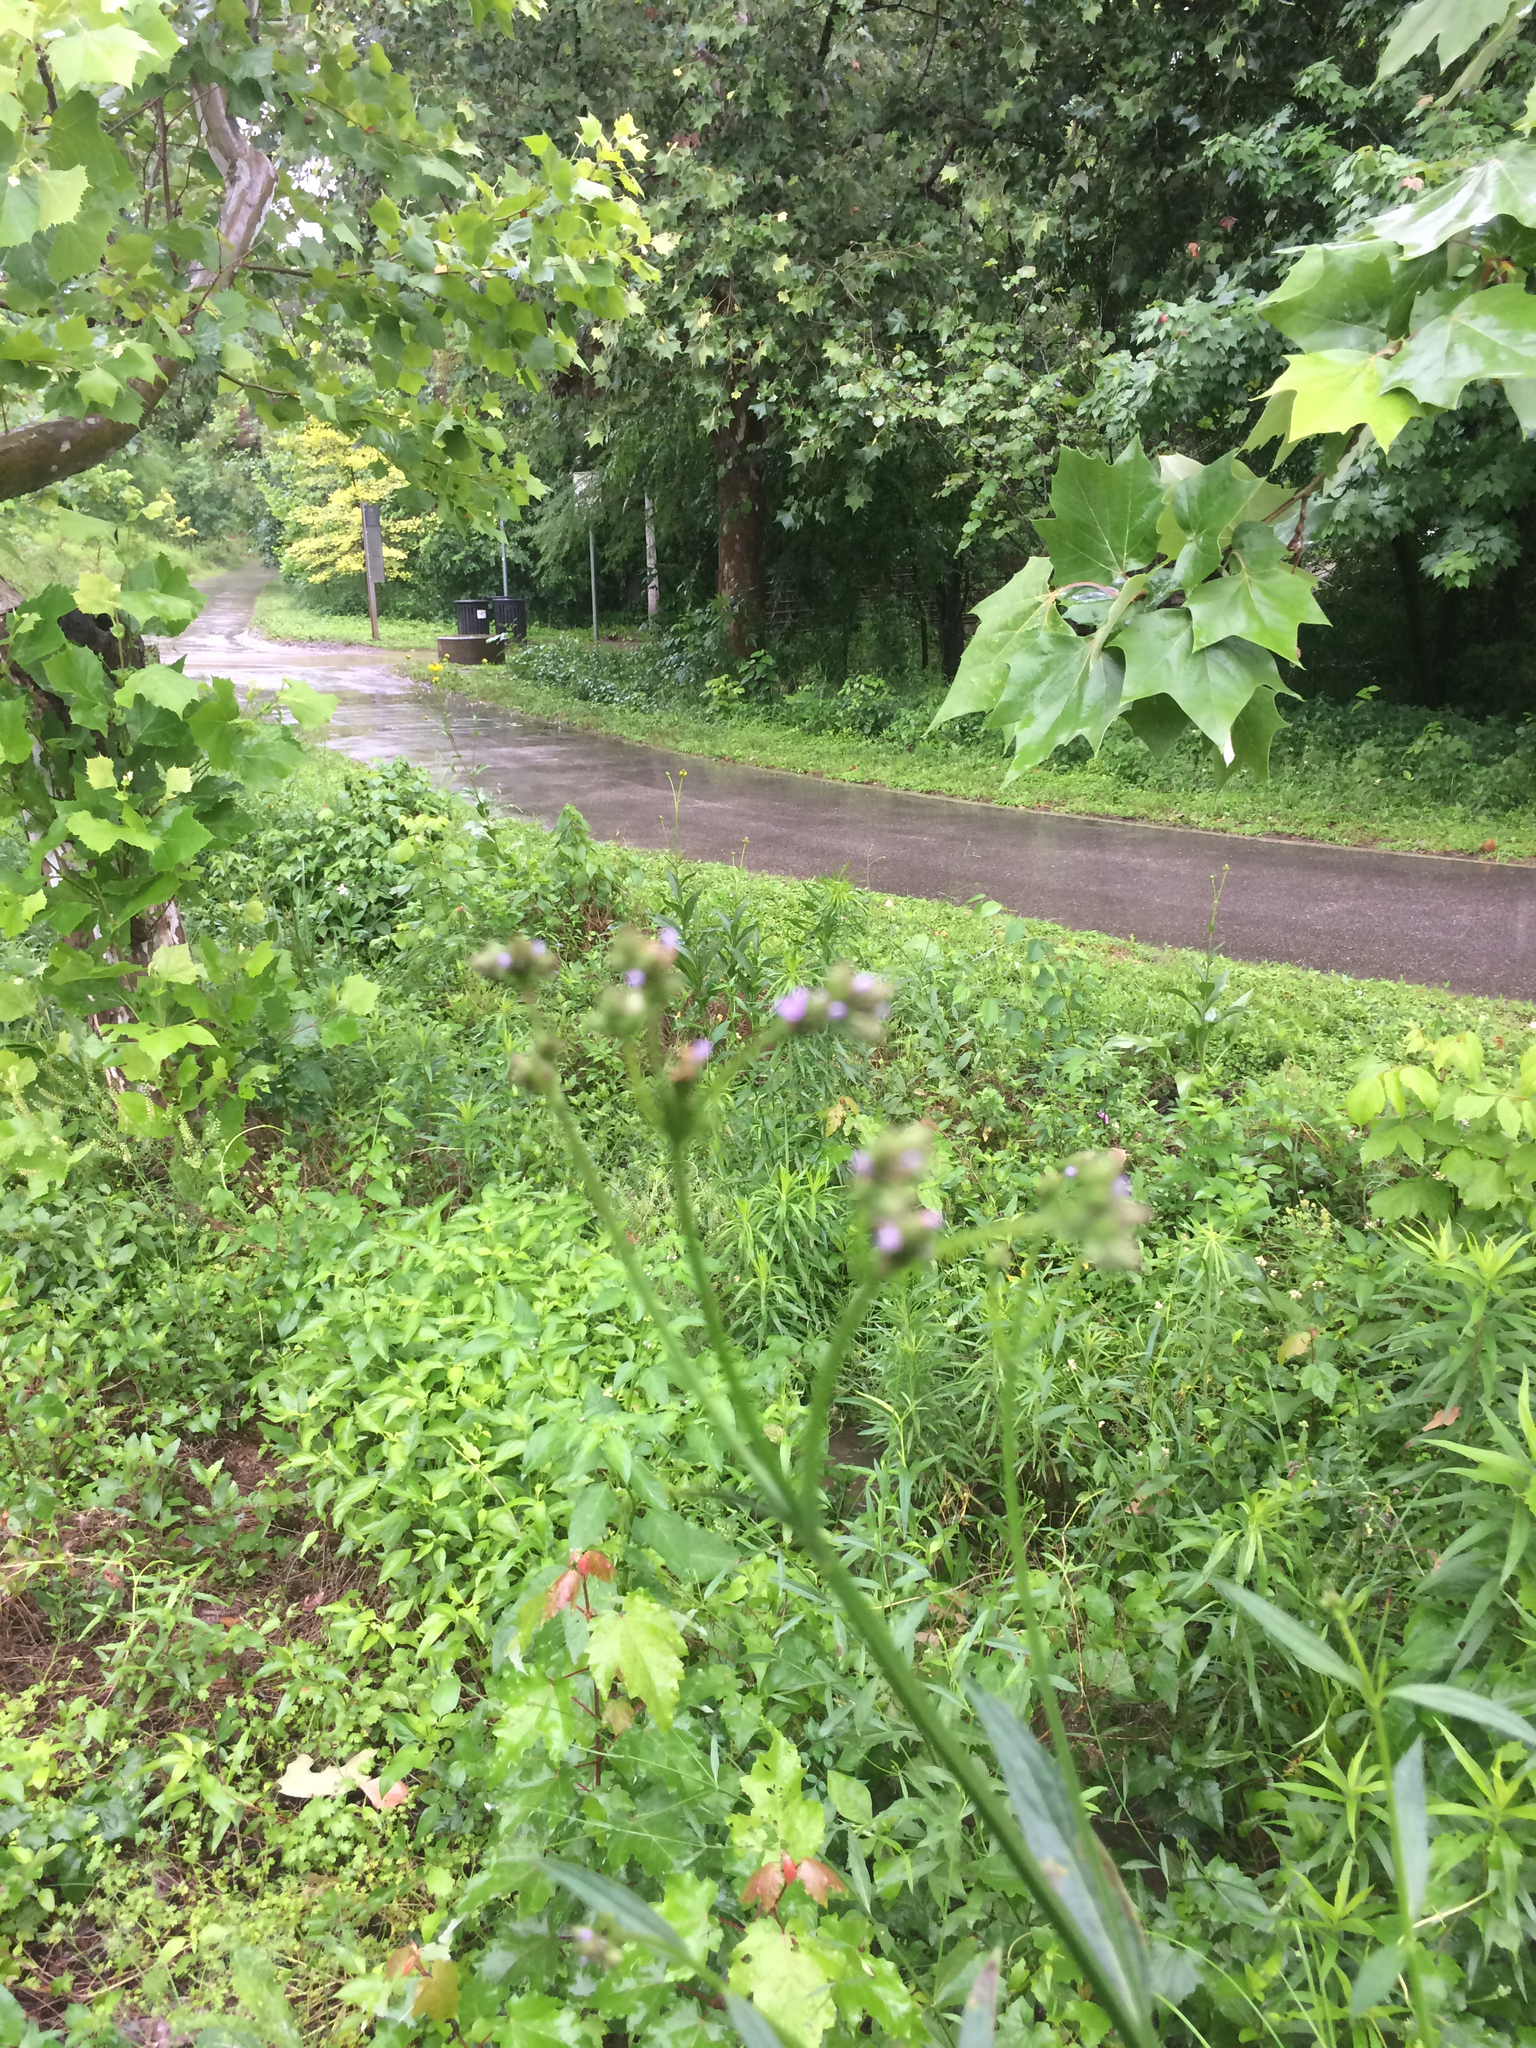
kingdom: Plantae
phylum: Tracheophyta
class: Magnoliopsida
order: Lamiales
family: Verbenaceae
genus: Verbena
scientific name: Verbena brasiliensis
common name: Brazilian vervain
